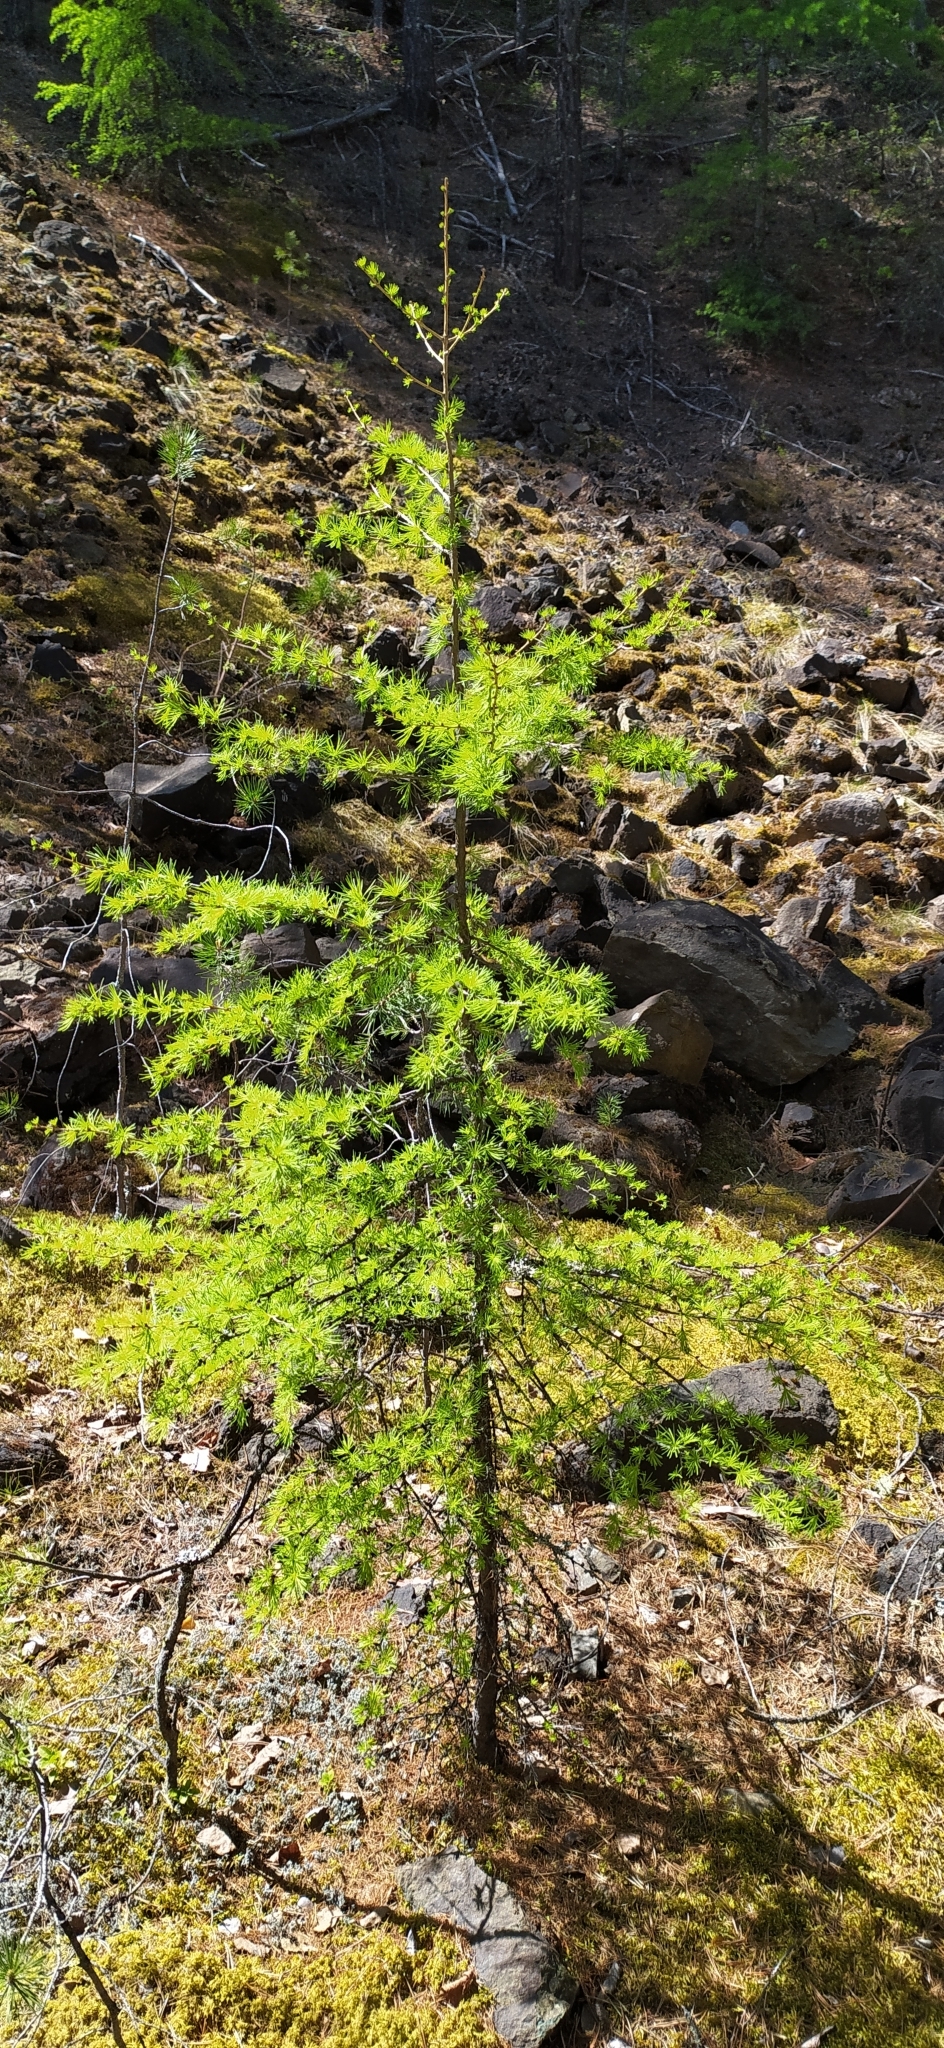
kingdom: Plantae
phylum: Tracheophyta
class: Pinopsida
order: Pinales
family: Pinaceae
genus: Larix
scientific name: Larix sibirica
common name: Siberian larch
